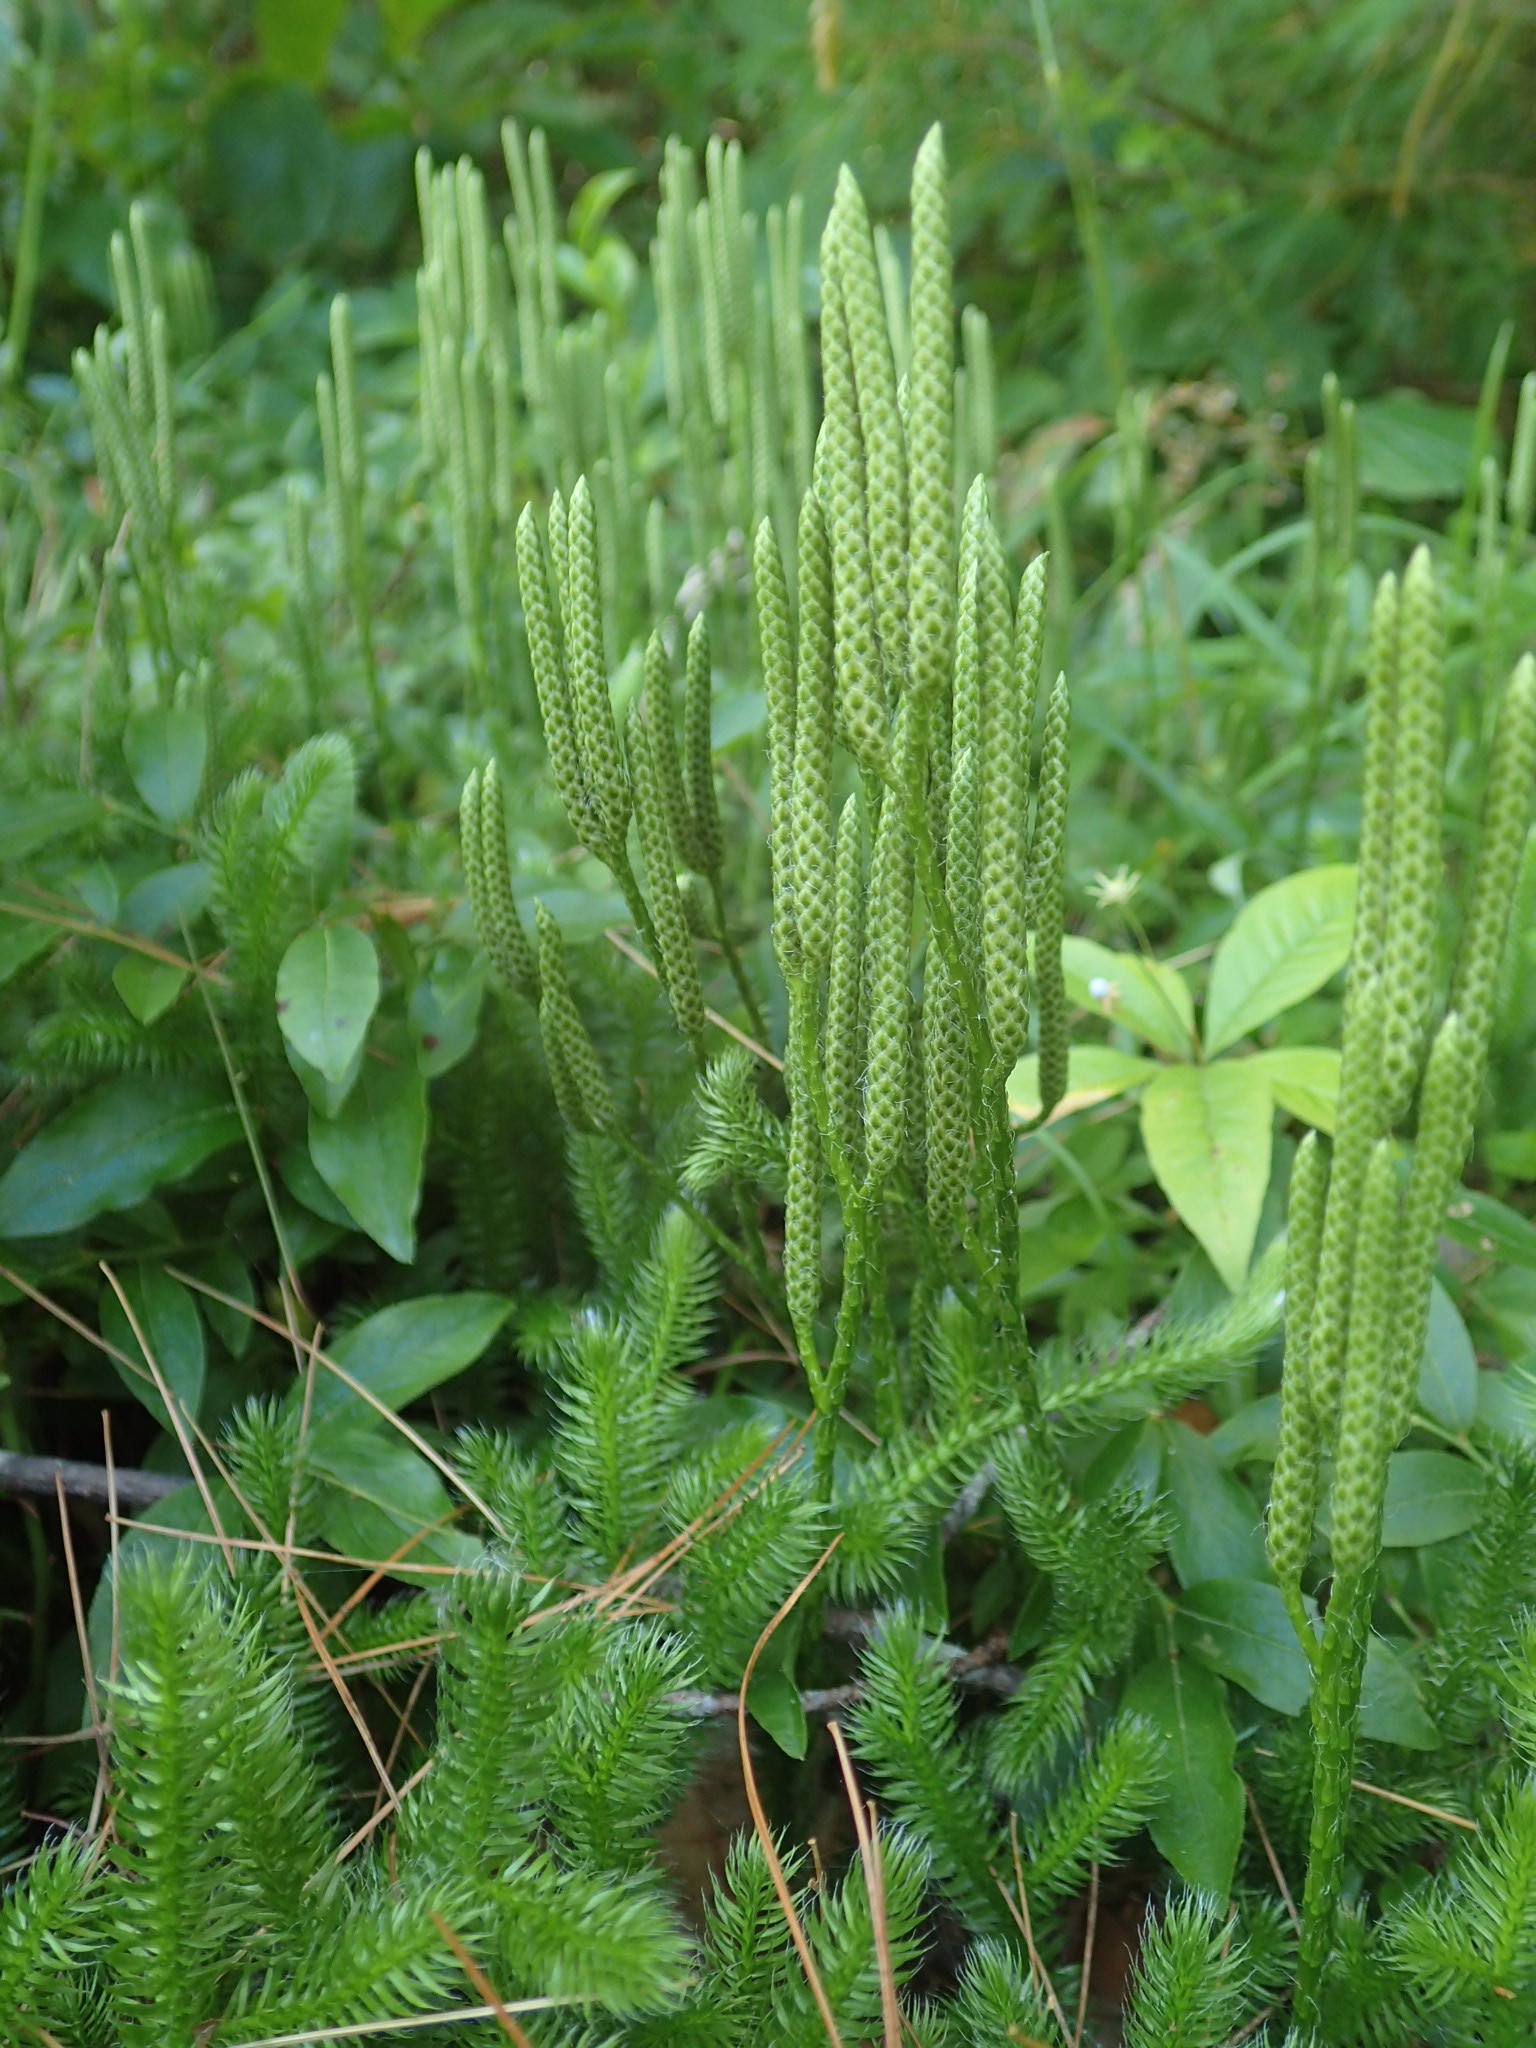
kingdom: Plantae
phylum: Tracheophyta
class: Lycopodiopsida
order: Lycopodiales
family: Lycopodiaceae
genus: Lycopodium
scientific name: Lycopodium clavatum
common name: Stag's-horn clubmoss
